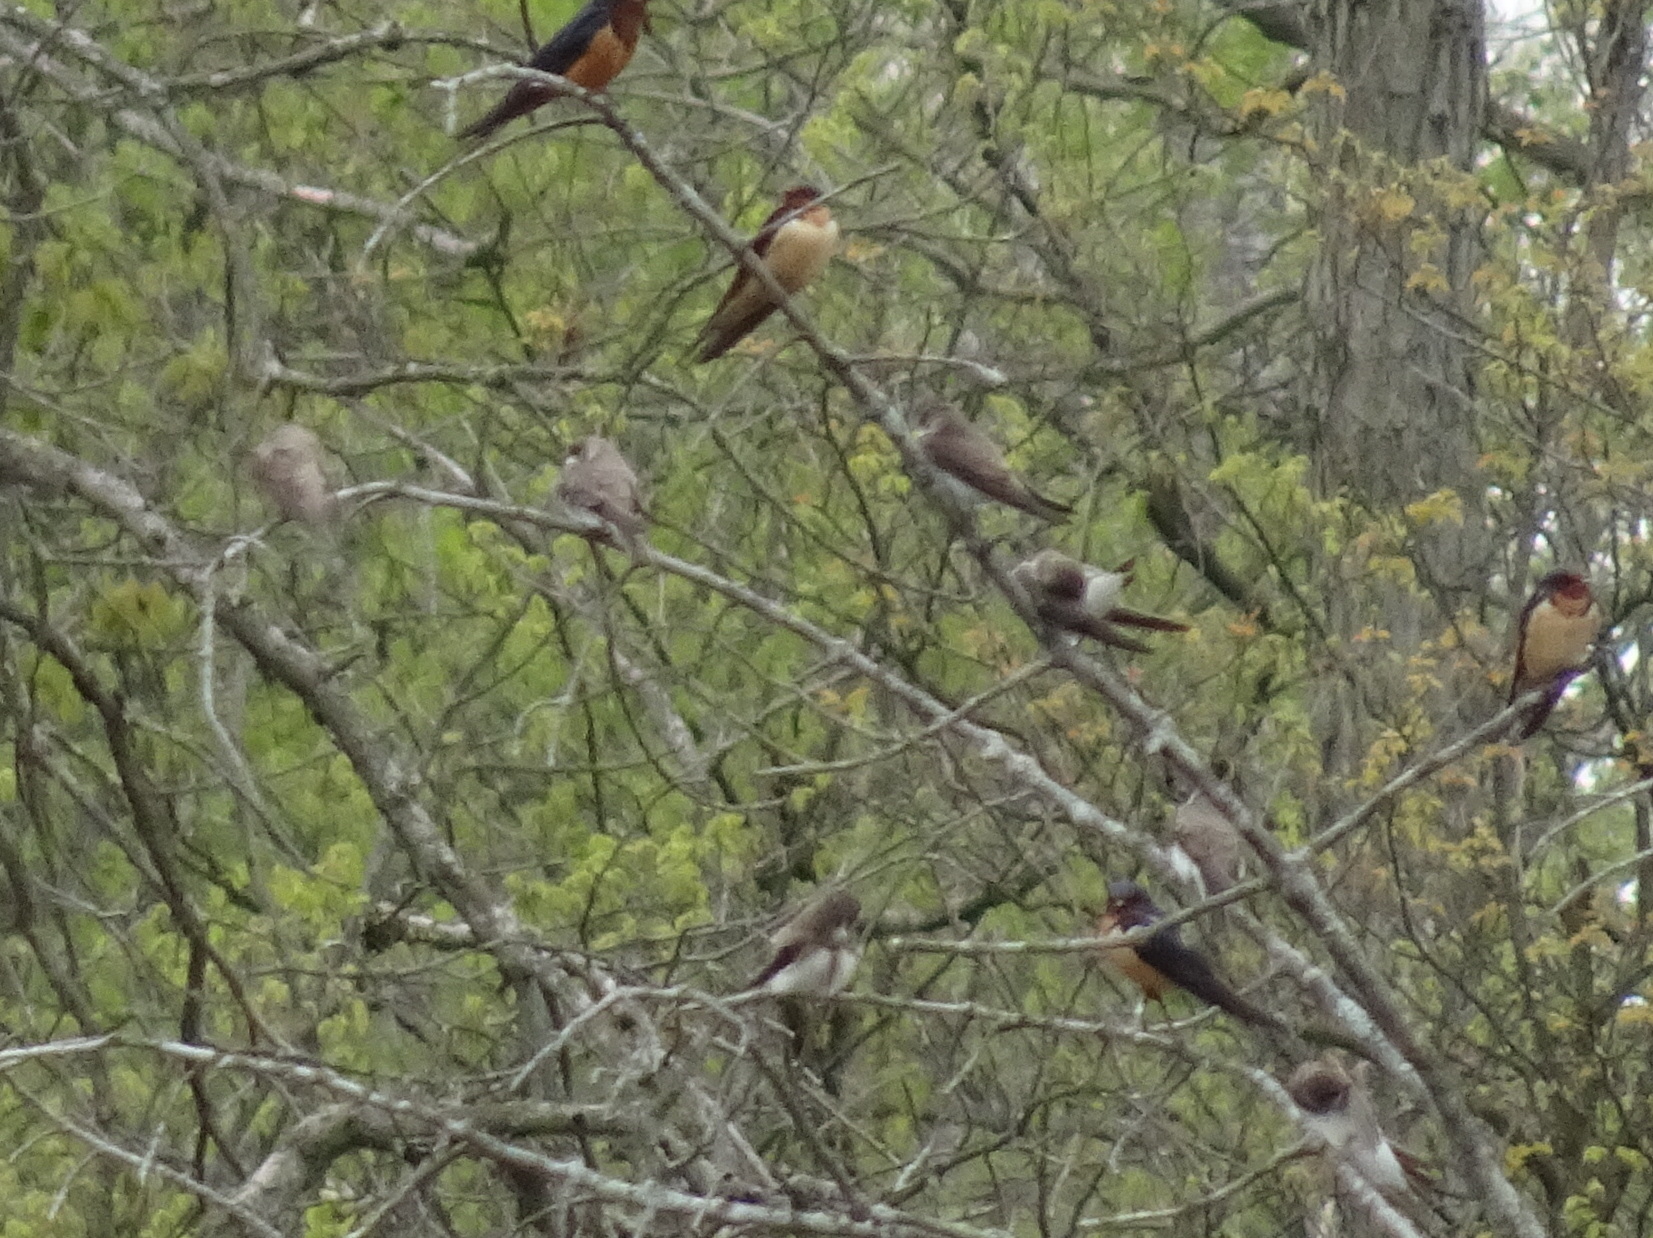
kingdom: Animalia
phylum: Chordata
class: Aves
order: Passeriformes
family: Hirundinidae
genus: Riparia
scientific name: Riparia riparia
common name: Sand martin
